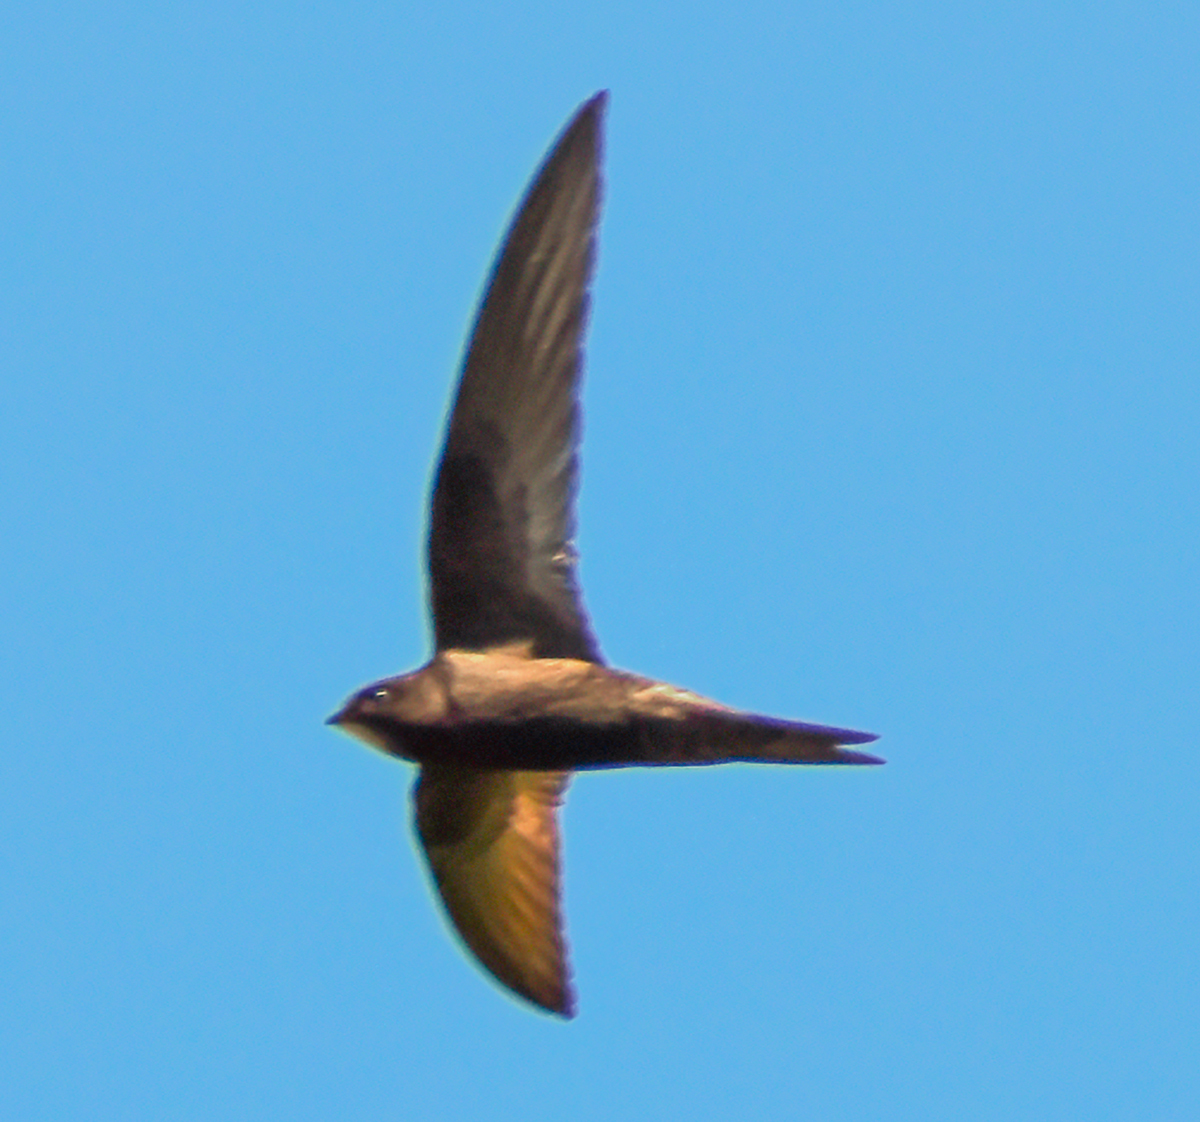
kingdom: Animalia
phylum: Chordata
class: Aves
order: Apodiformes
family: Apodidae
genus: Apus
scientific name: Apus apus
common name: Common swift
